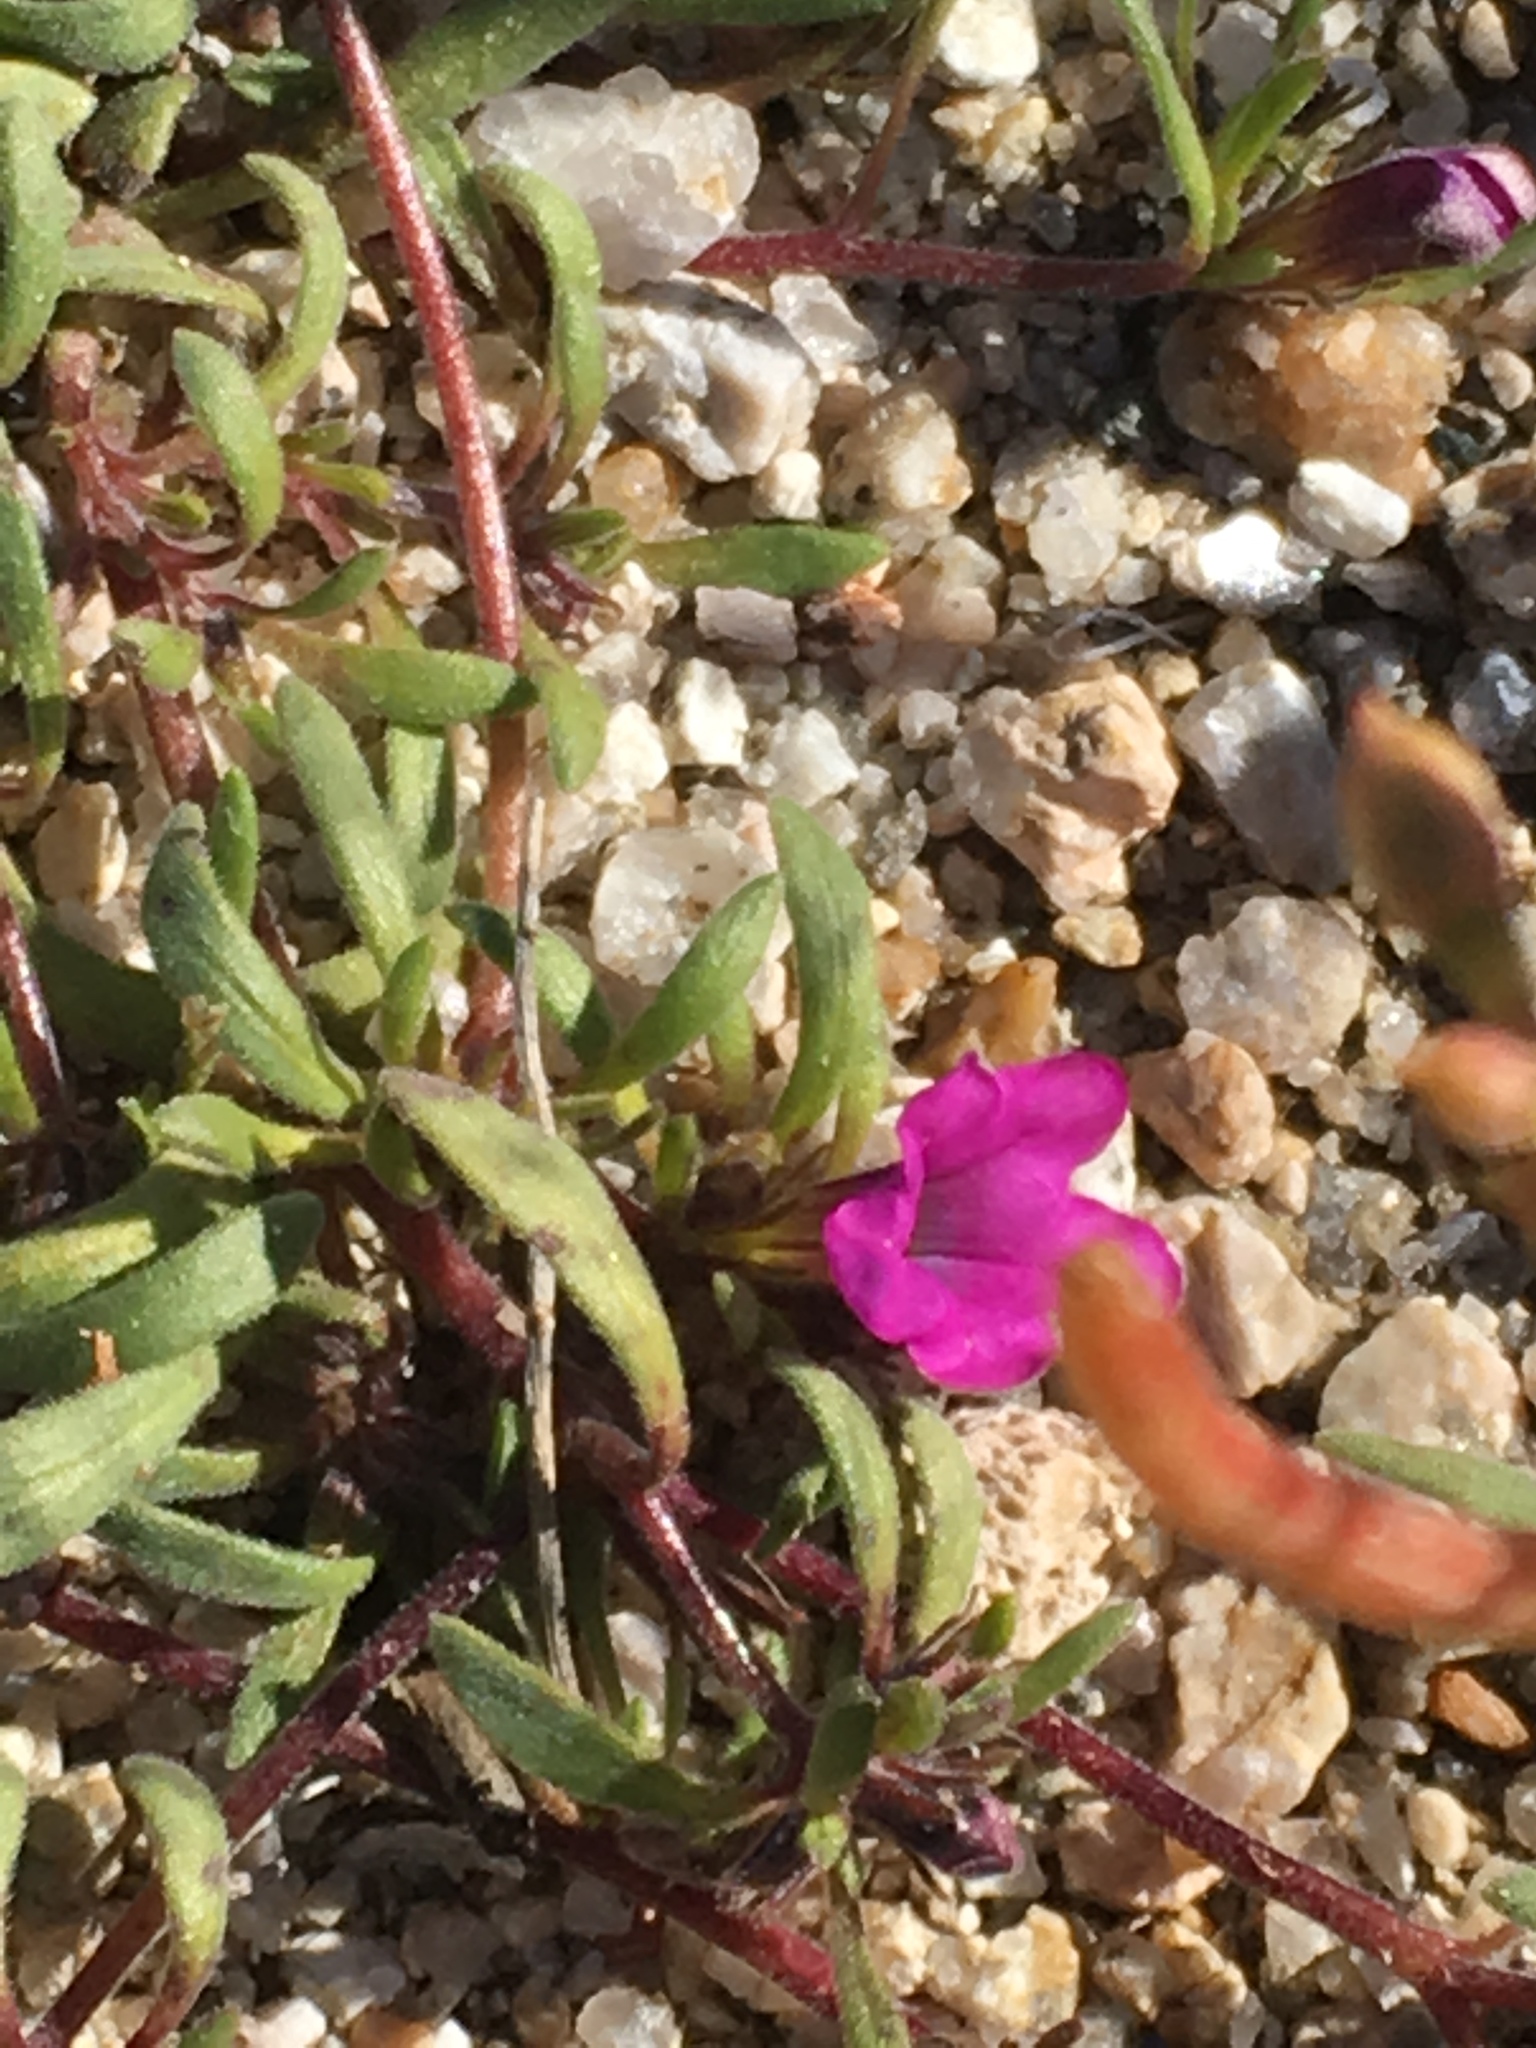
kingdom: Plantae
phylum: Tracheophyta
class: Magnoliopsida
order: Boraginales
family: Namaceae
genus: Nama
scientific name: Nama demissa
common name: Leafy nama
